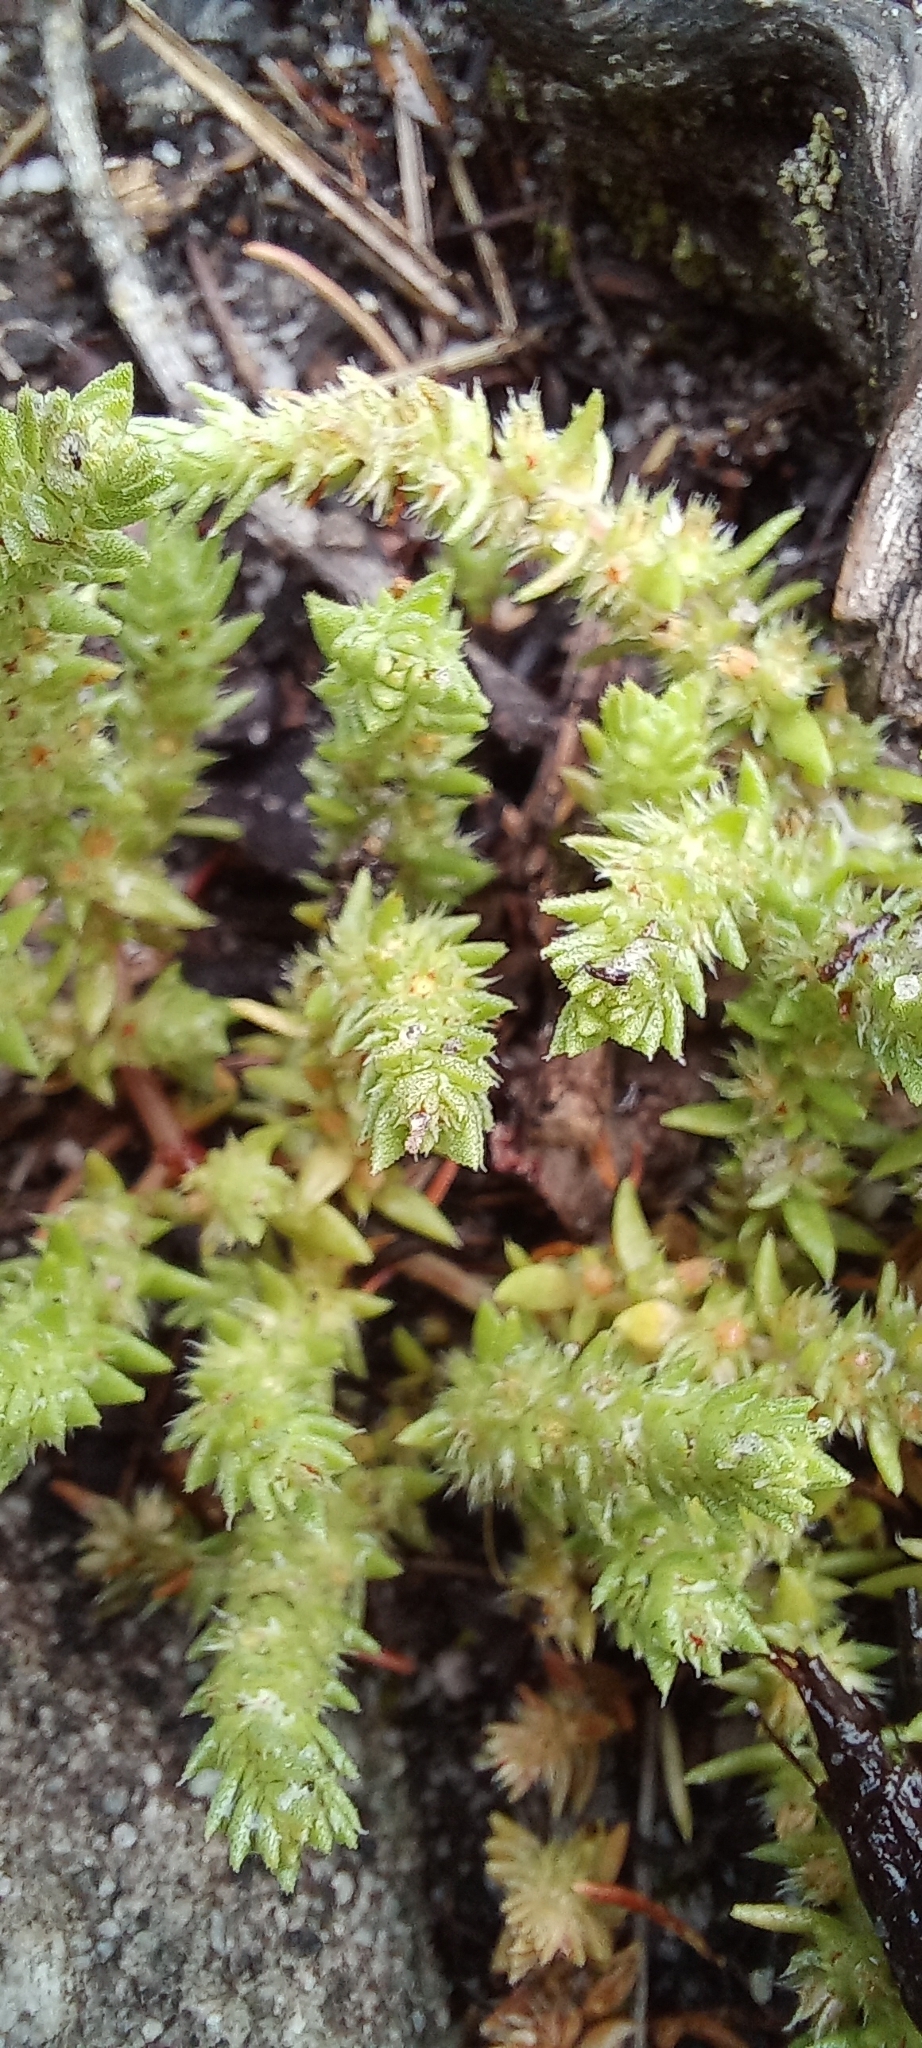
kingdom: Plantae
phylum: Tracheophyta
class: Magnoliopsida
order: Saxifragales
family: Crassulaceae
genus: Crassula
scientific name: Crassula lanceolata
